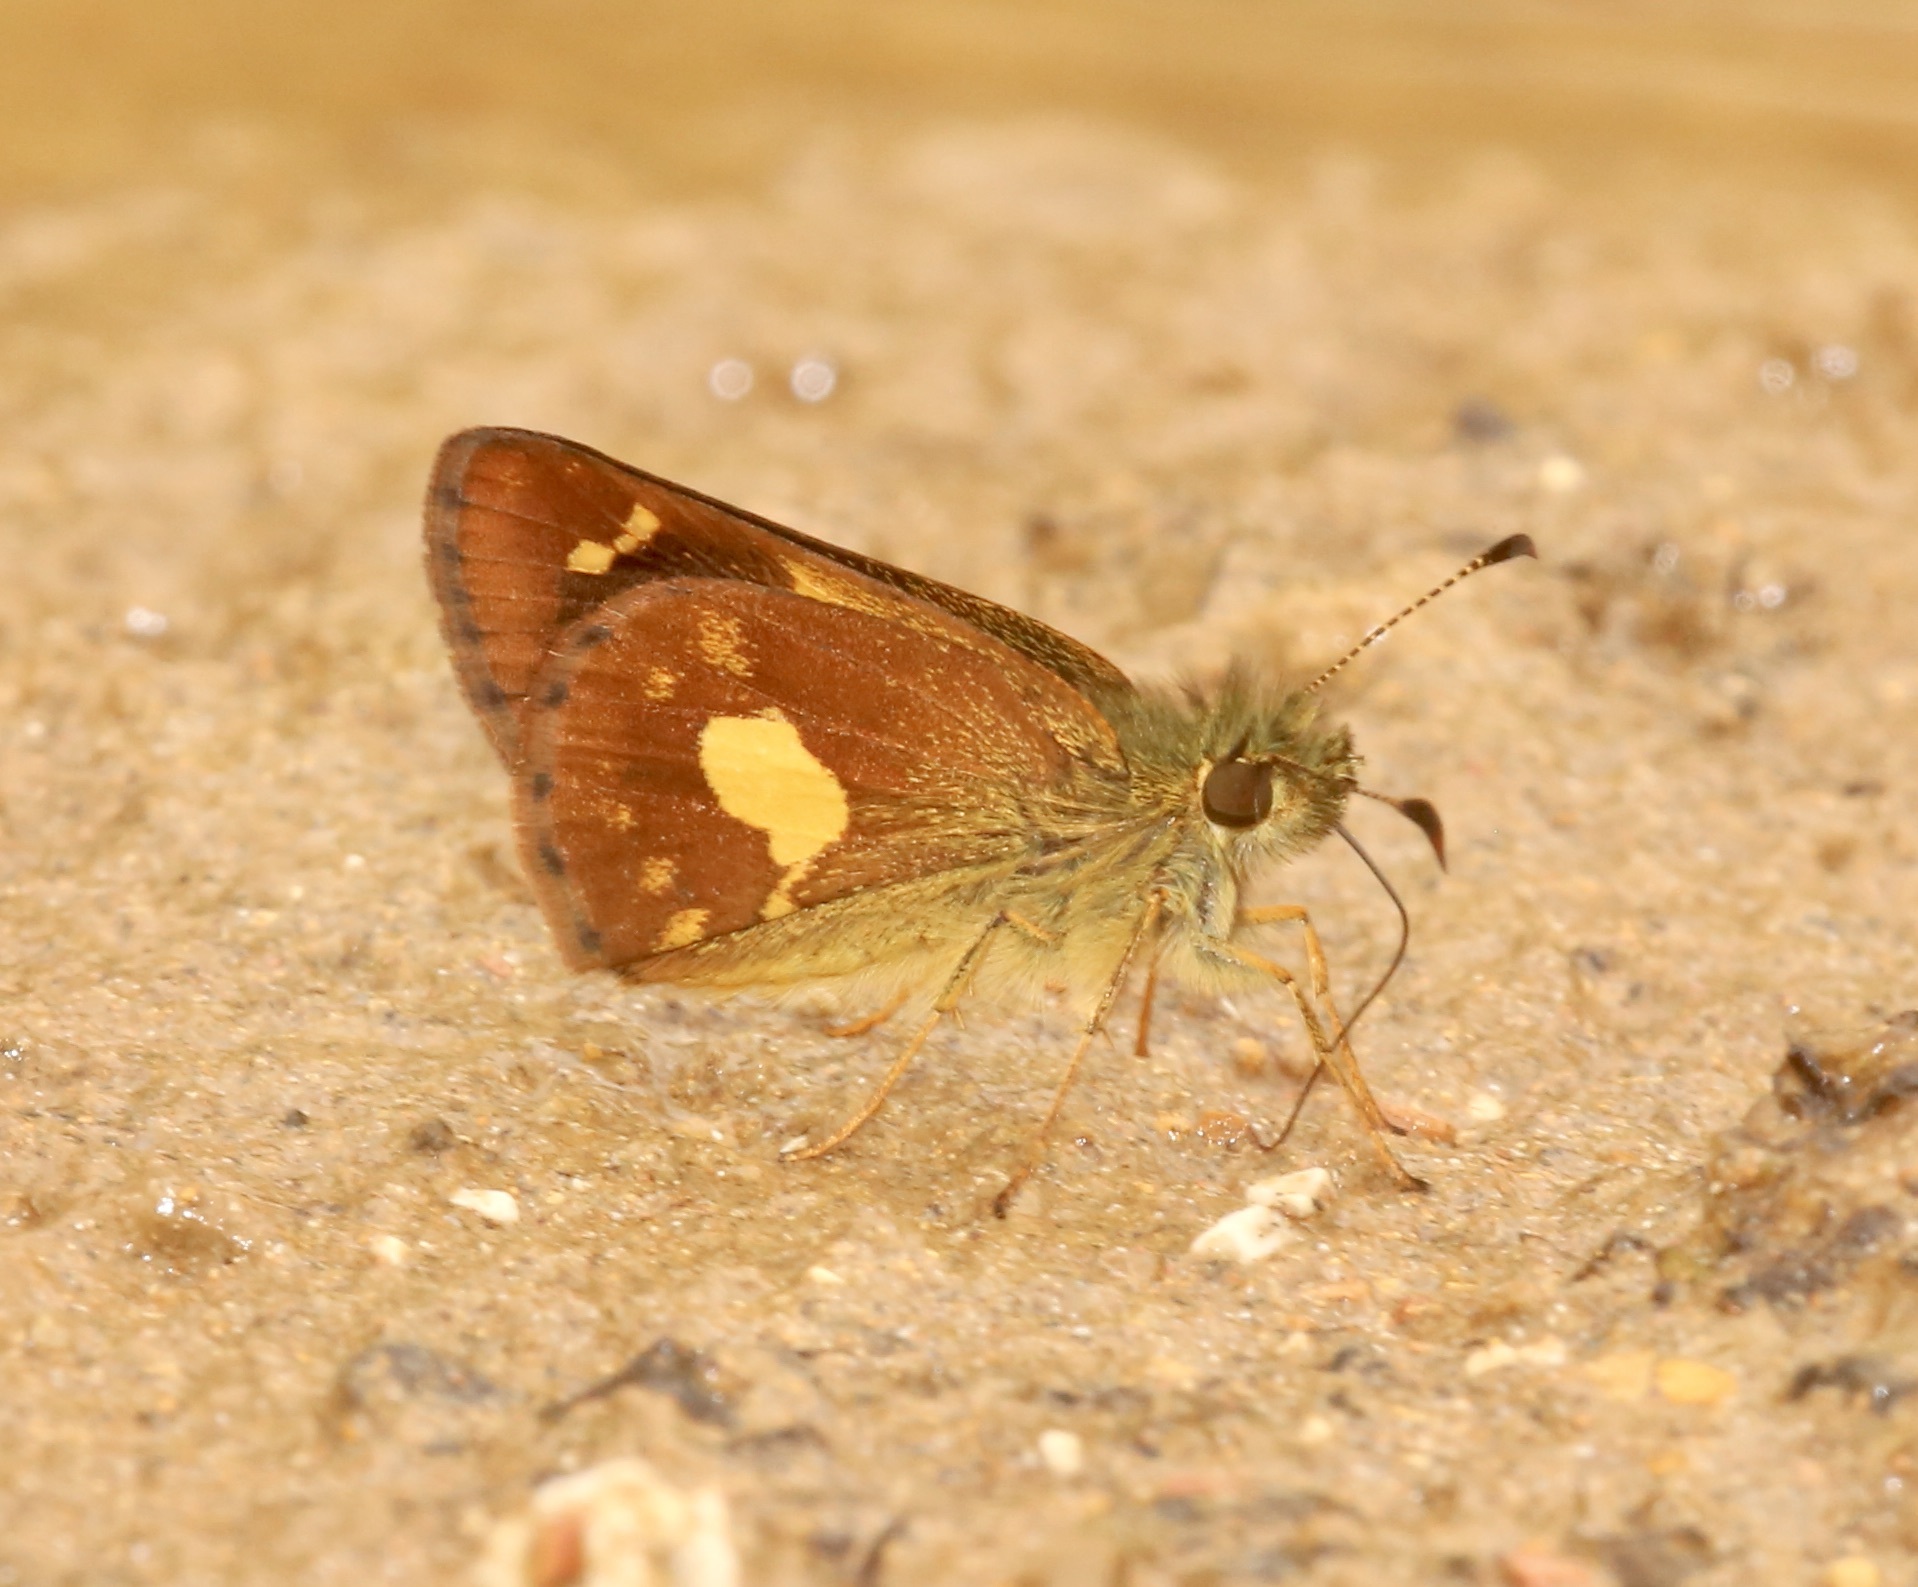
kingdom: Animalia
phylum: Arthropoda
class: Insecta
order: Lepidoptera
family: Hesperiidae
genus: Dalla
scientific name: Dalla cypselus
